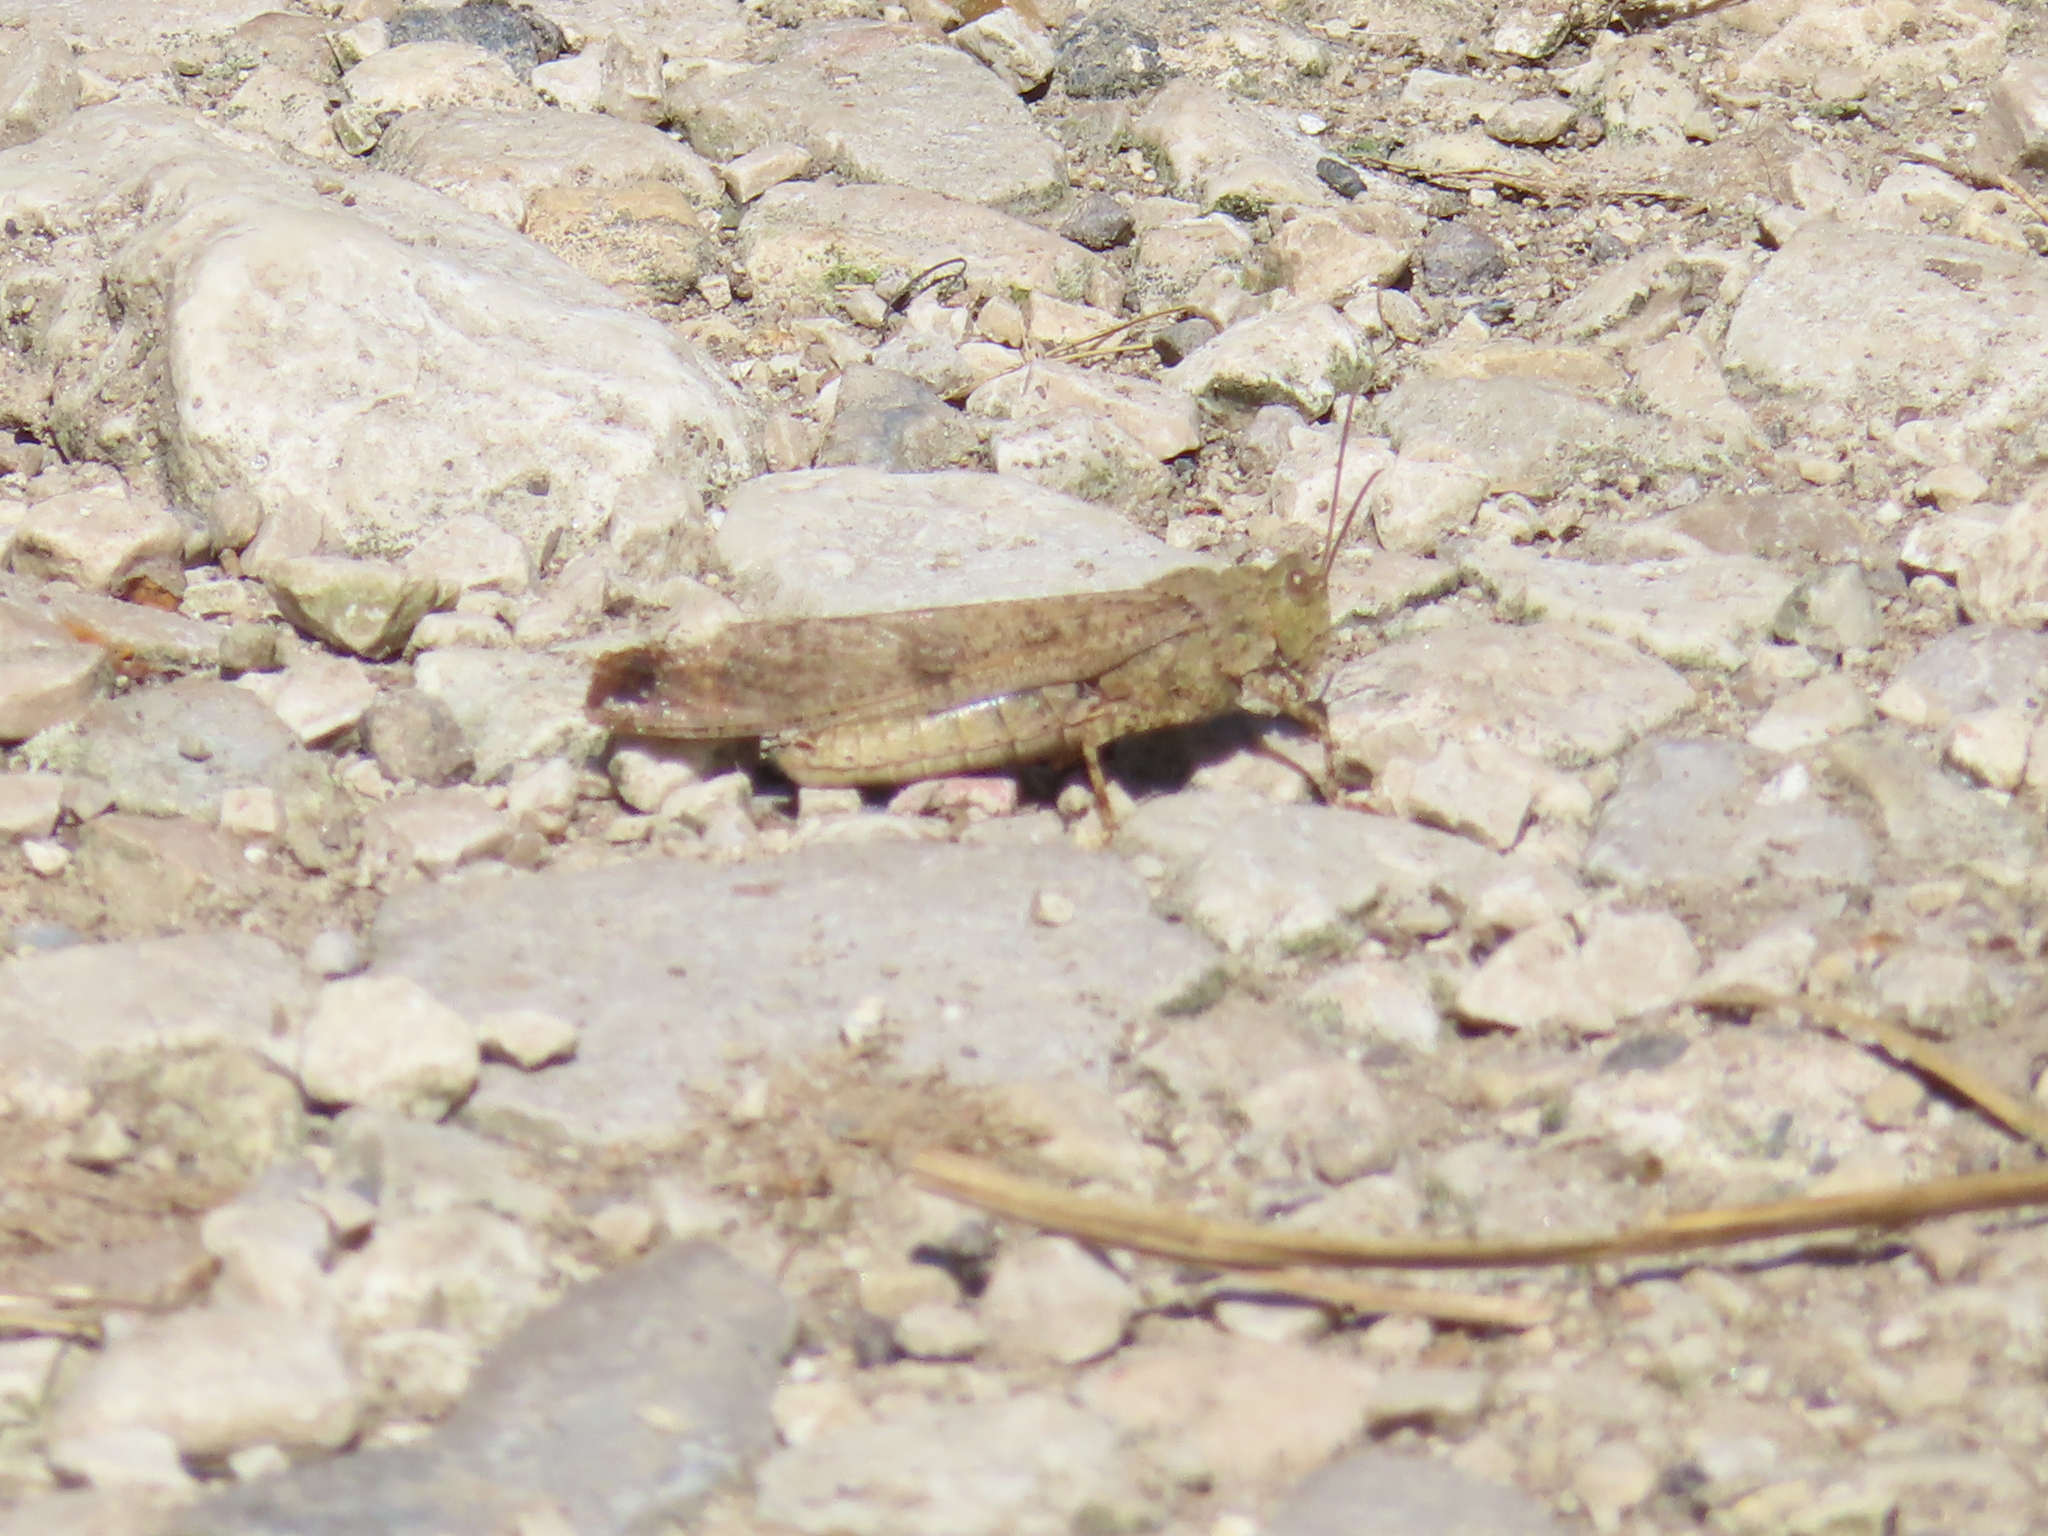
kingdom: Animalia
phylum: Arthropoda
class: Insecta
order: Orthoptera
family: Acrididae
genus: Dissosteira
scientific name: Dissosteira carolina
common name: Carolina grasshopper
